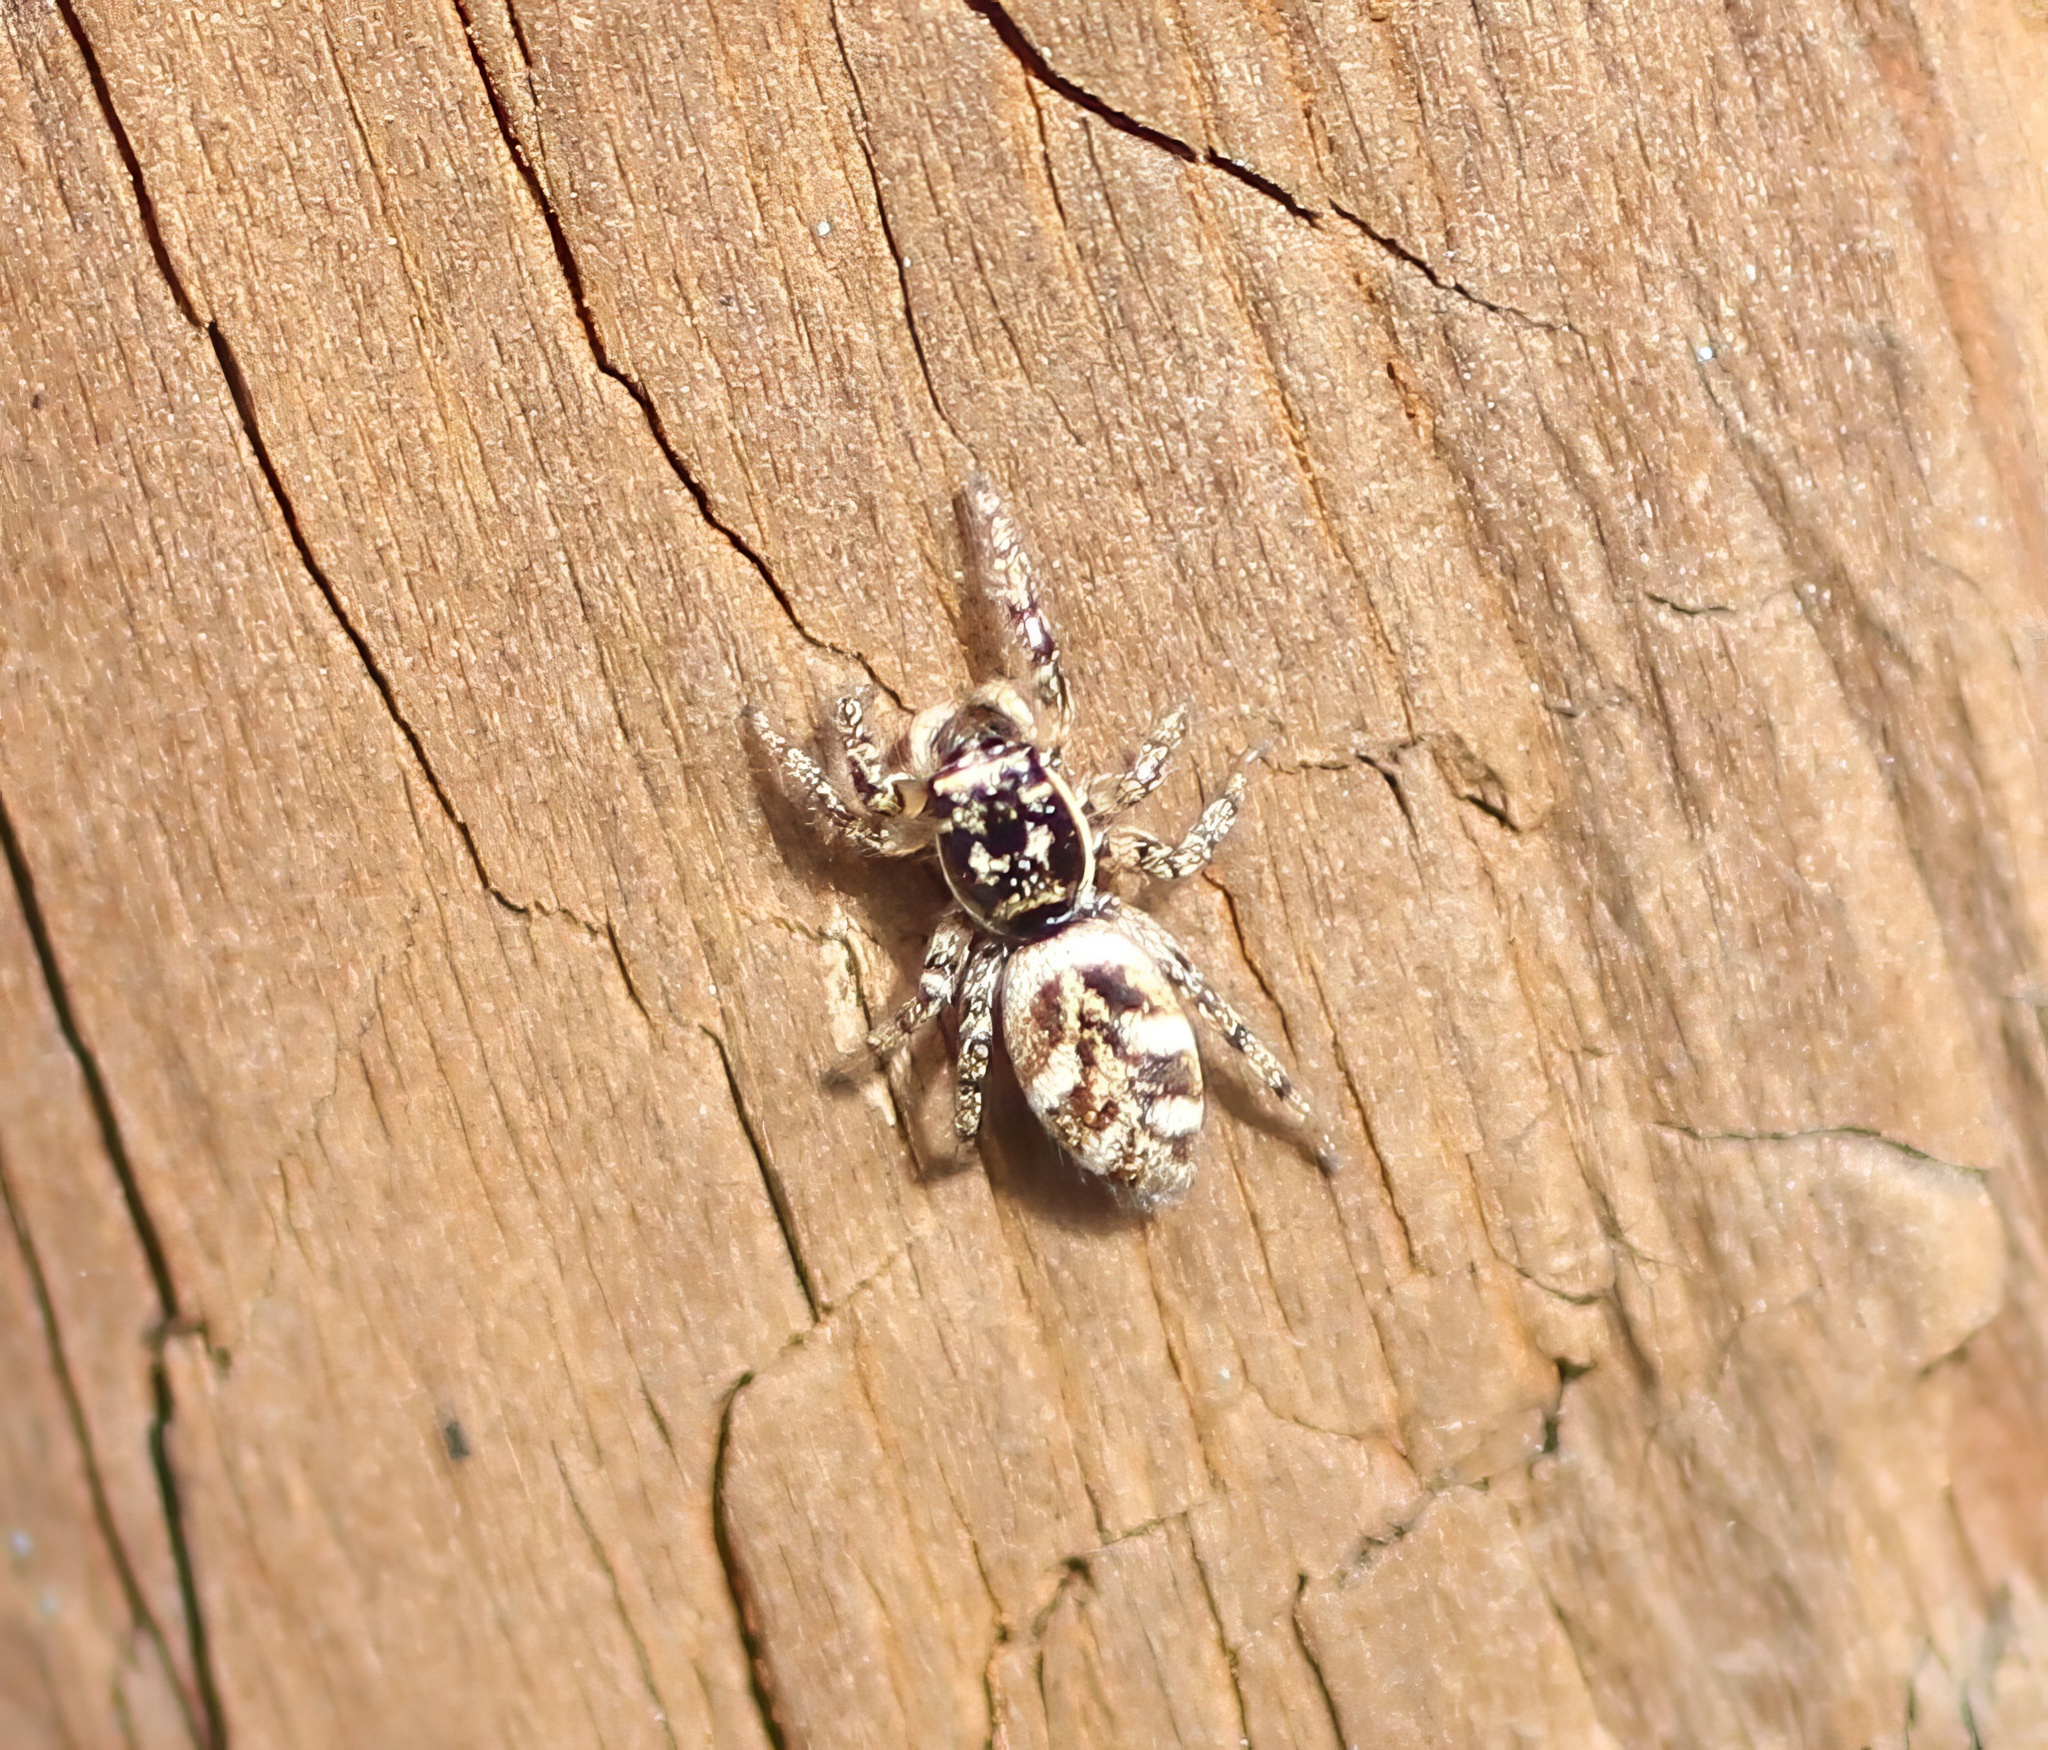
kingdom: Animalia
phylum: Arthropoda
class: Arachnida
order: Araneae
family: Salticidae
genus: Salticus
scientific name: Salticus scenicus
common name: Zebra jumper
